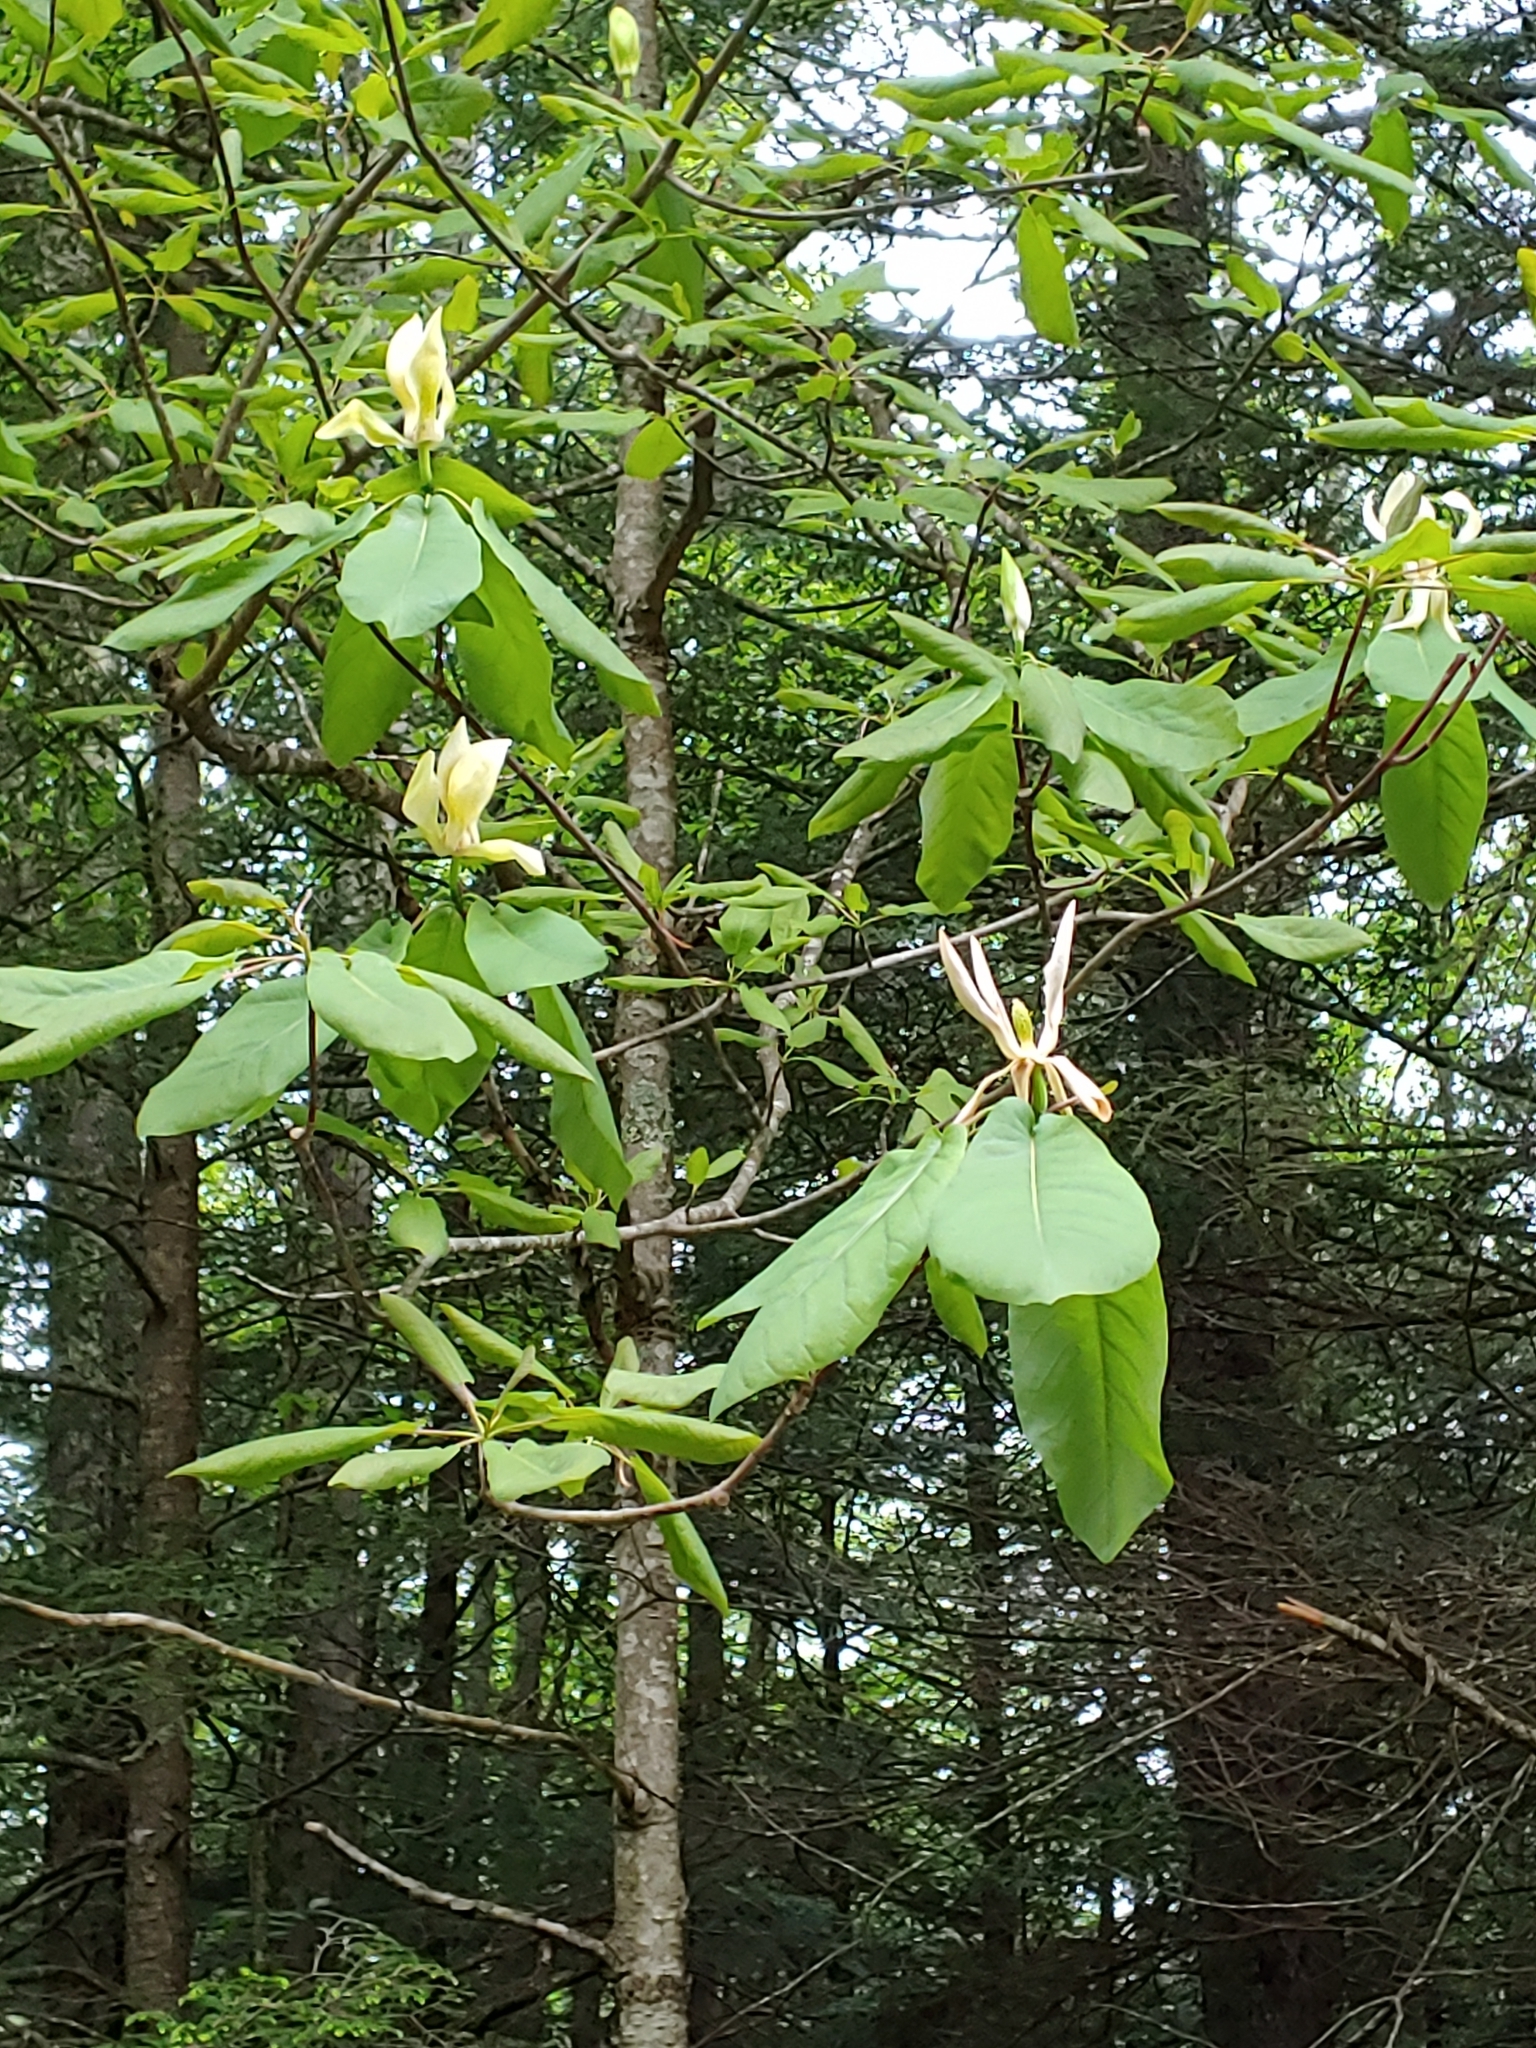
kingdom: Plantae
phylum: Tracheophyta
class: Magnoliopsida
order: Magnoliales
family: Magnoliaceae
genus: Magnolia
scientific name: Magnolia fraseri
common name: Fraser's magnolia
